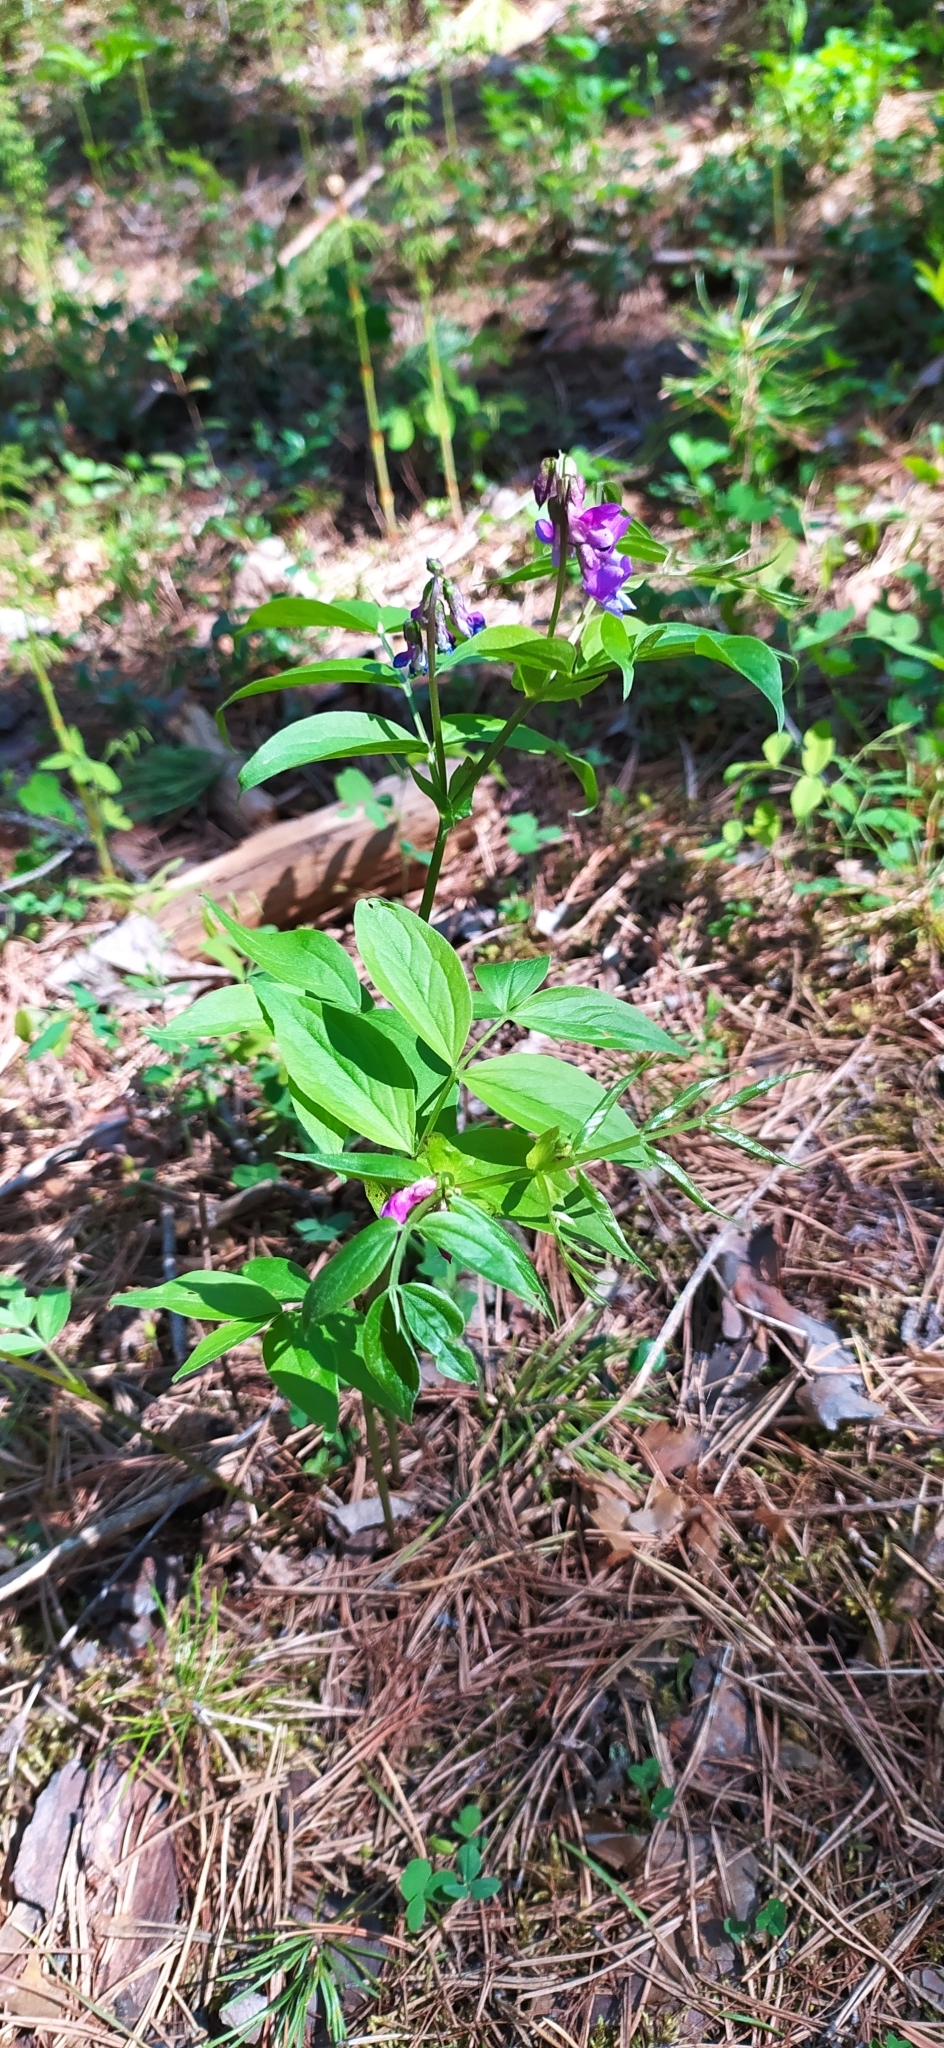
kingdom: Plantae
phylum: Tracheophyta
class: Magnoliopsida
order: Fabales
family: Fabaceae
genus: Lathyrus
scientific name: Lathyrus vernus
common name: Spring pea
